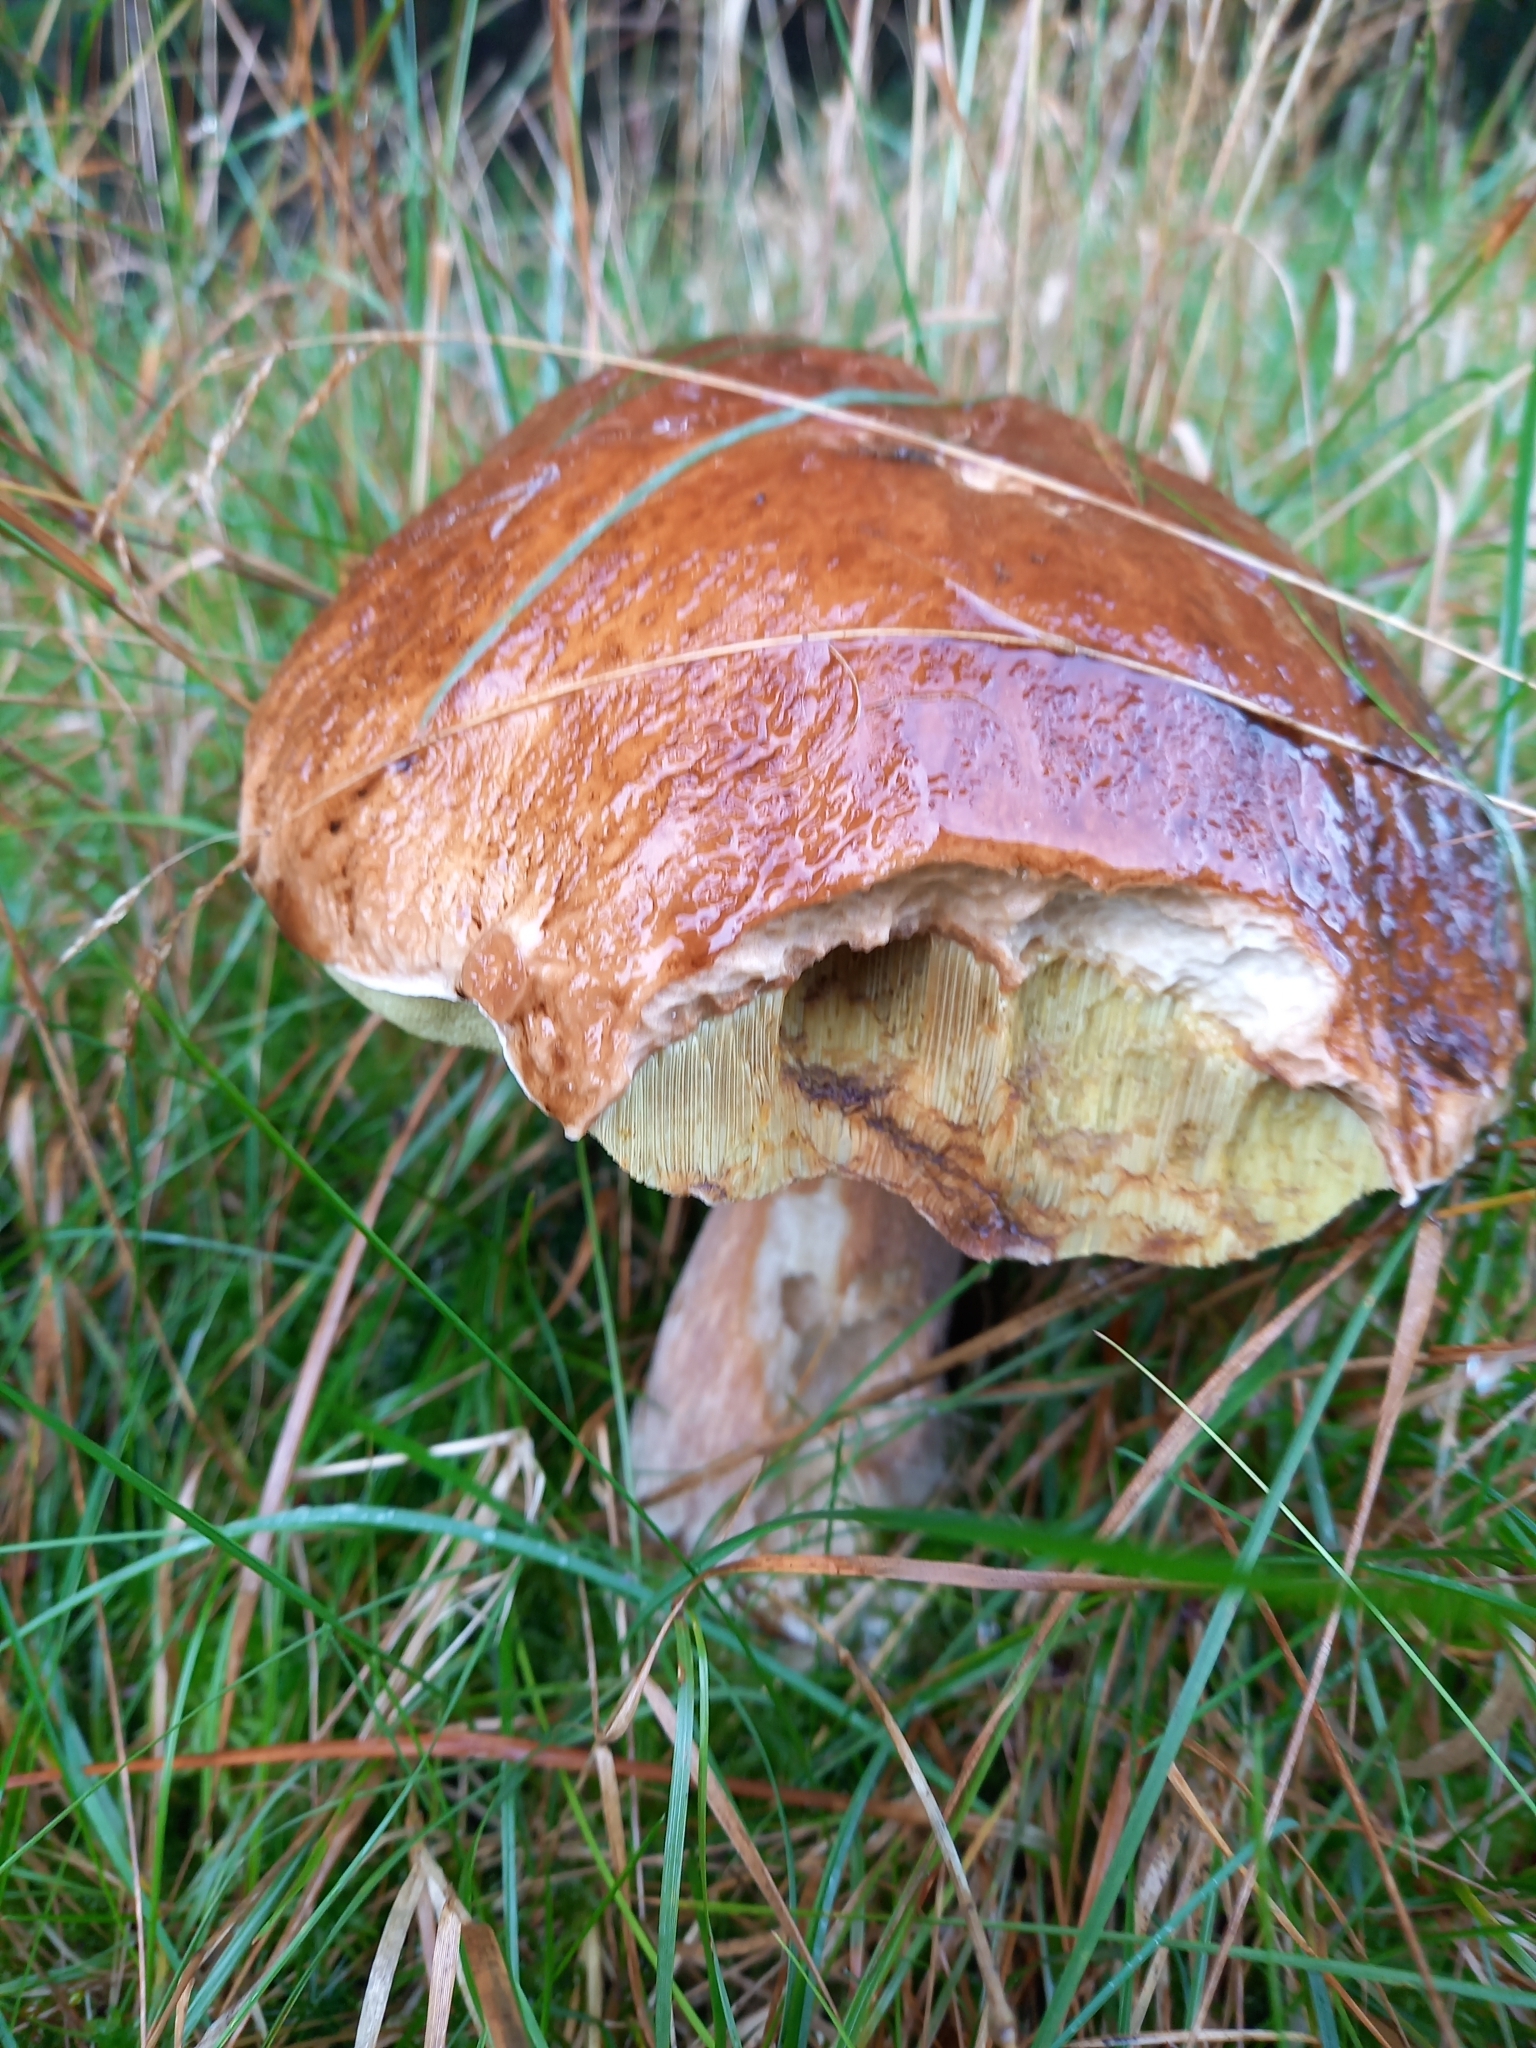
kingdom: Fungi
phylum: Basidiomycota
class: Agaricomycetes
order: Boletales
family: Boletaceae
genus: Boletus
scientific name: Boletus edulis
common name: Cep
